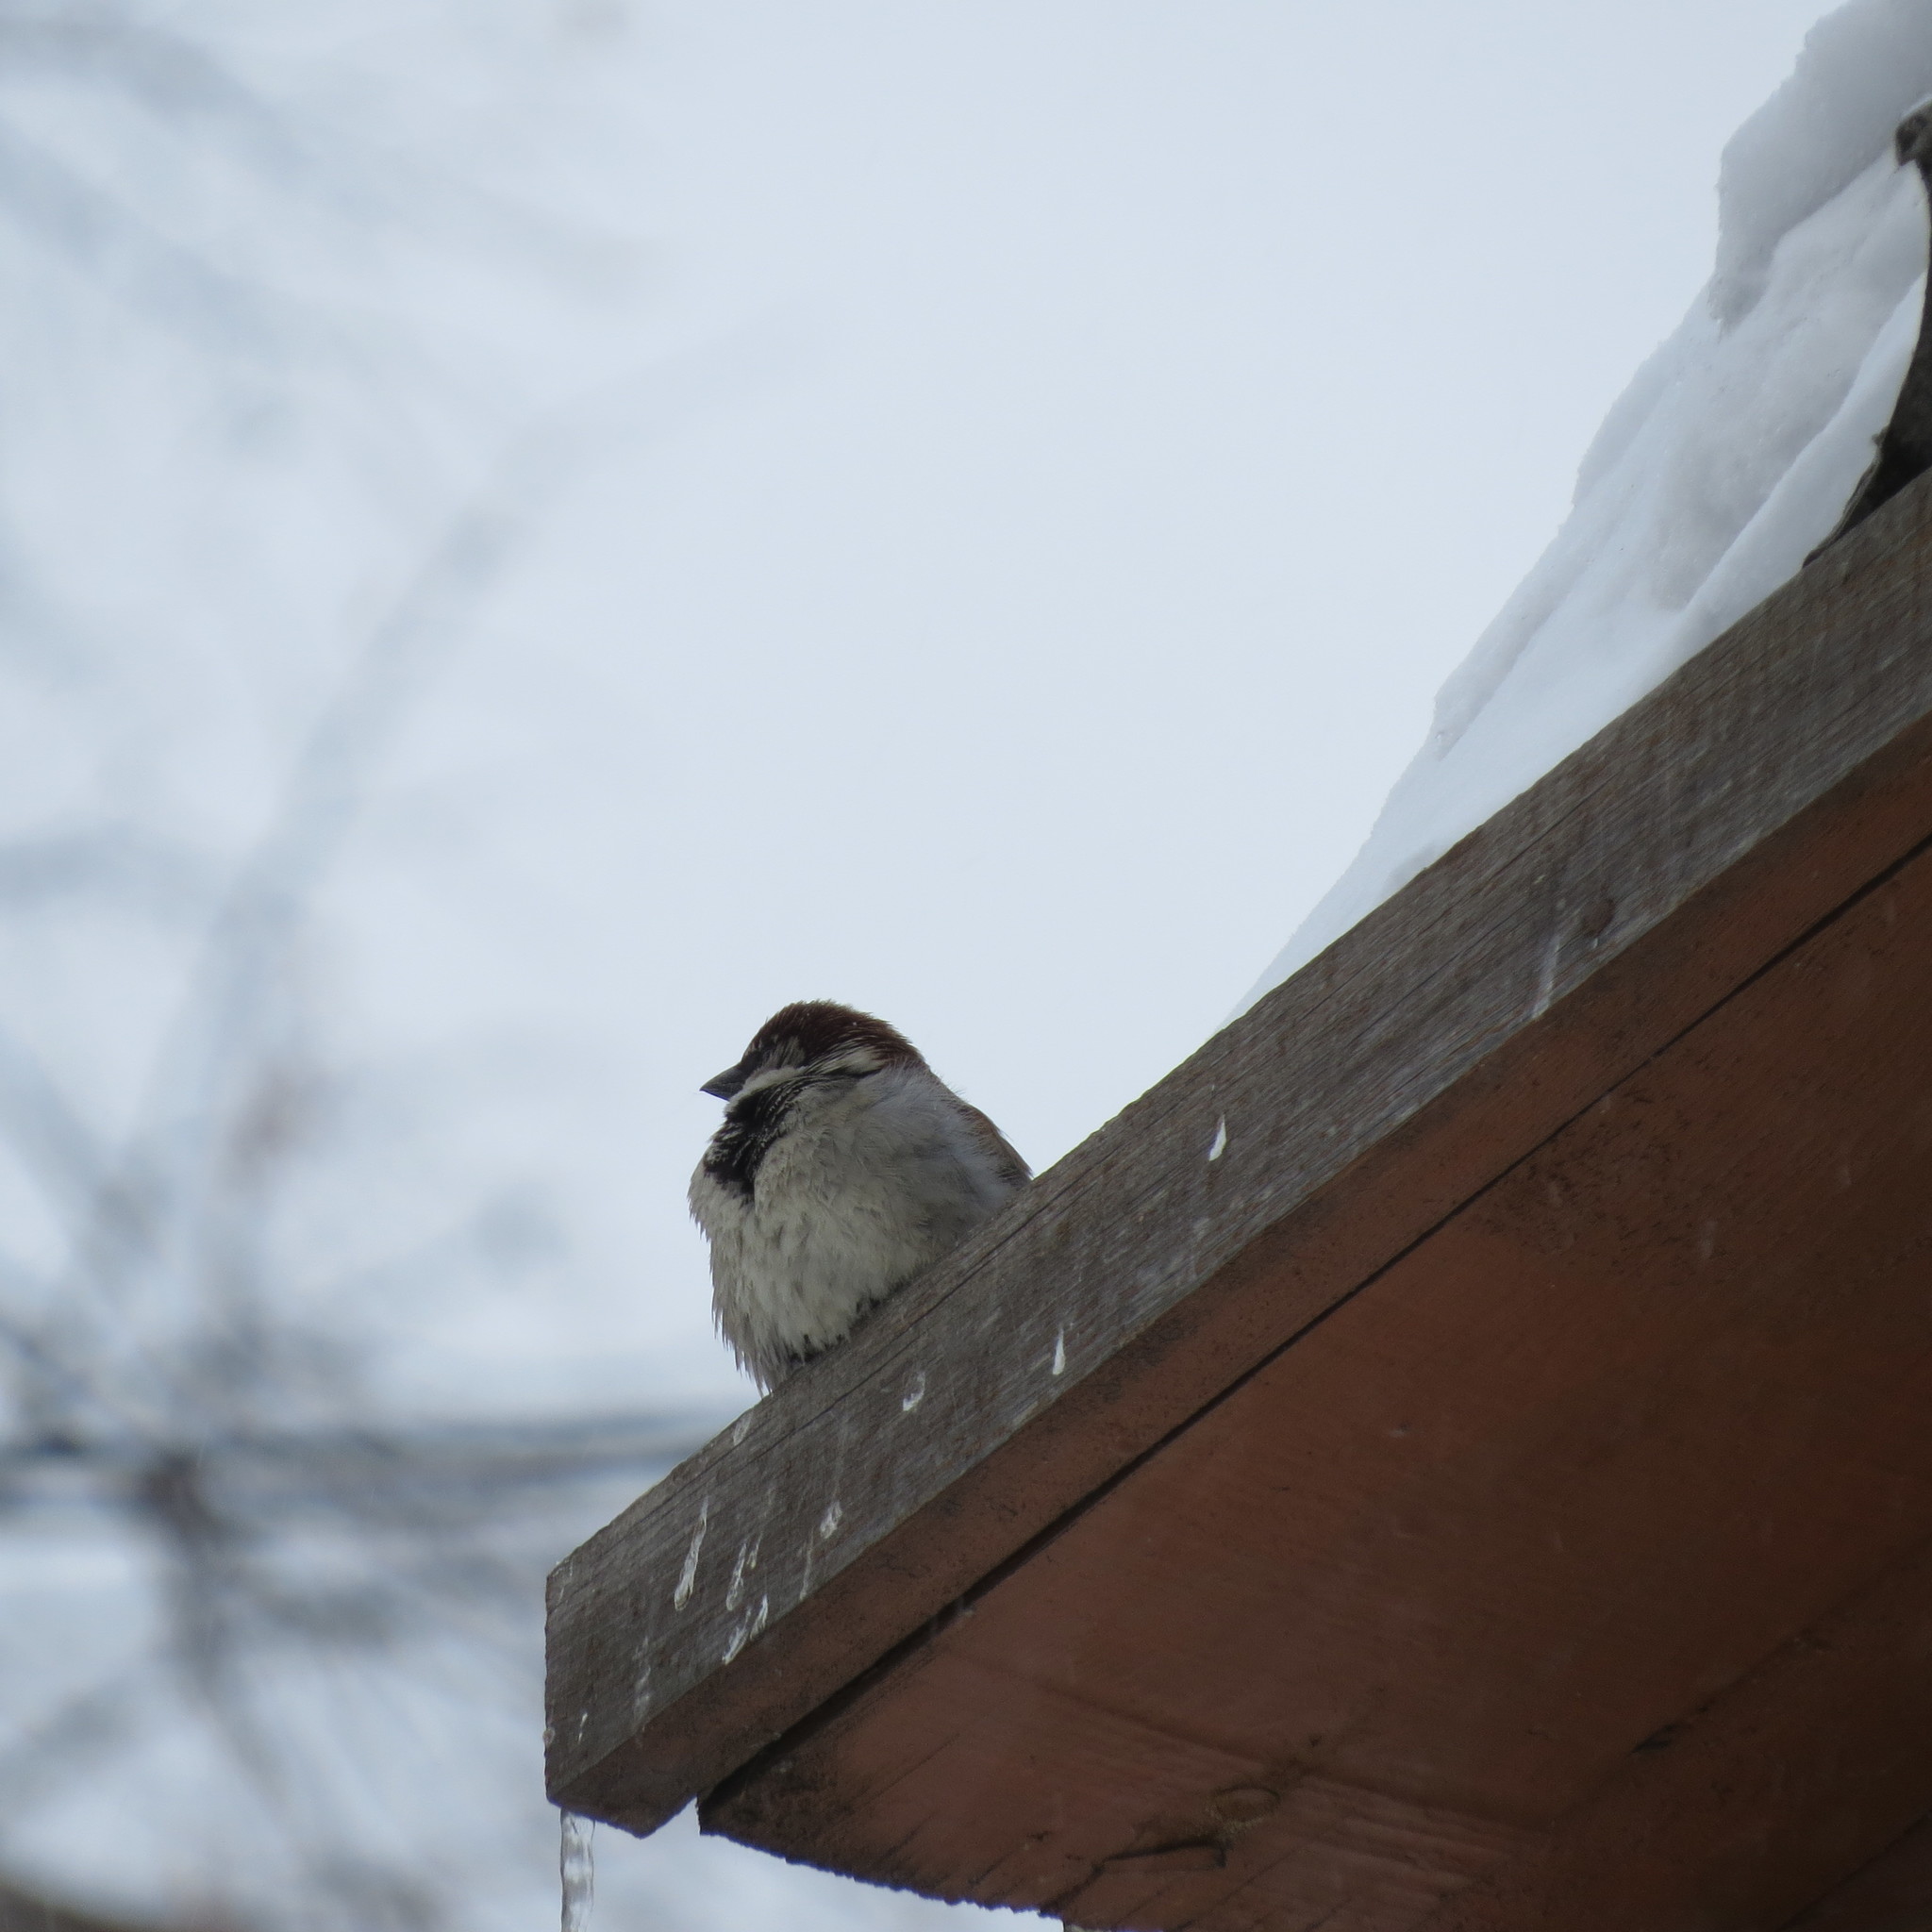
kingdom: Animalia
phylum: Chordata
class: Aves
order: Passeriformes
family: Passeridae
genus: Passer
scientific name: Passer domesticus
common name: House sparrow
